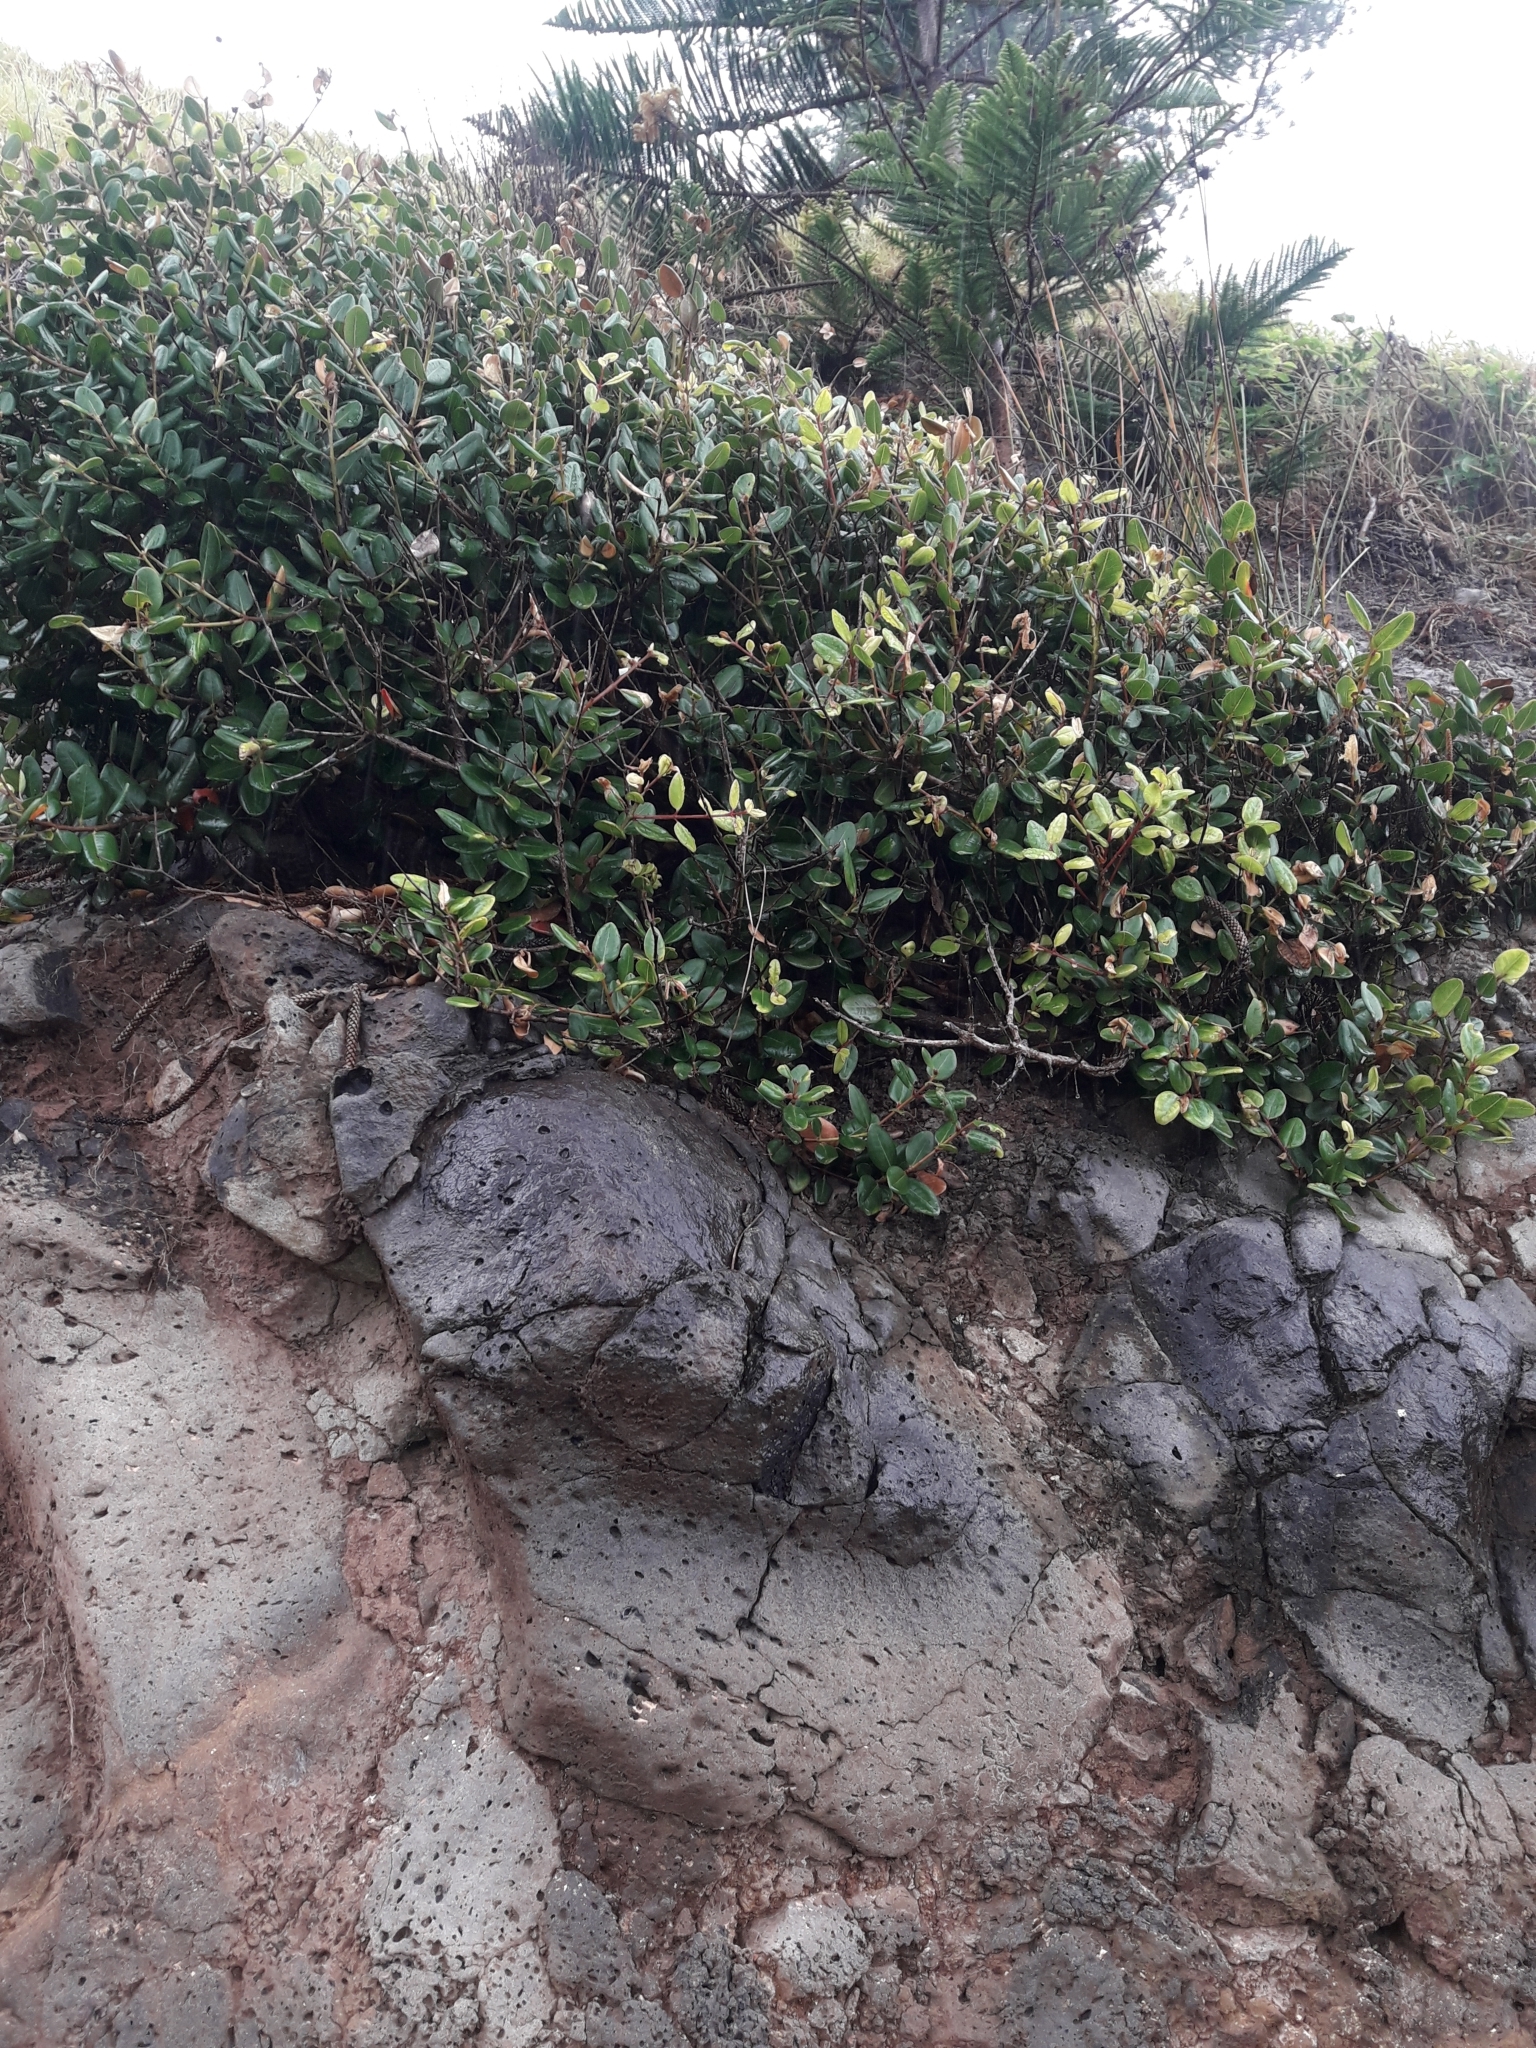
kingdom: Plantae
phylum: Tracheophyta
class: Magnoliopsida
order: Myrtales
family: Myrtaceae
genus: Metrosideros
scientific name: Metrosideros kermadecensis
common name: Pohutukawa
